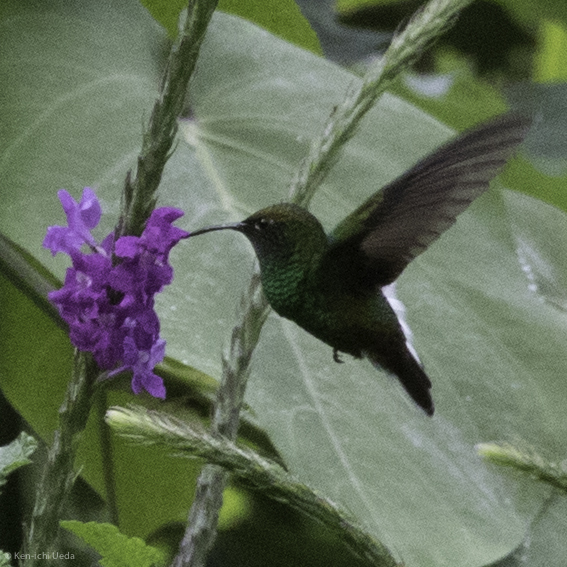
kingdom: Animalia
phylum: Chordata
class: Aves
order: Apodiformes
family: Trochilidae
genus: Microchera
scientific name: Microchera cupreiceps
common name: Coppery-headed emerald
